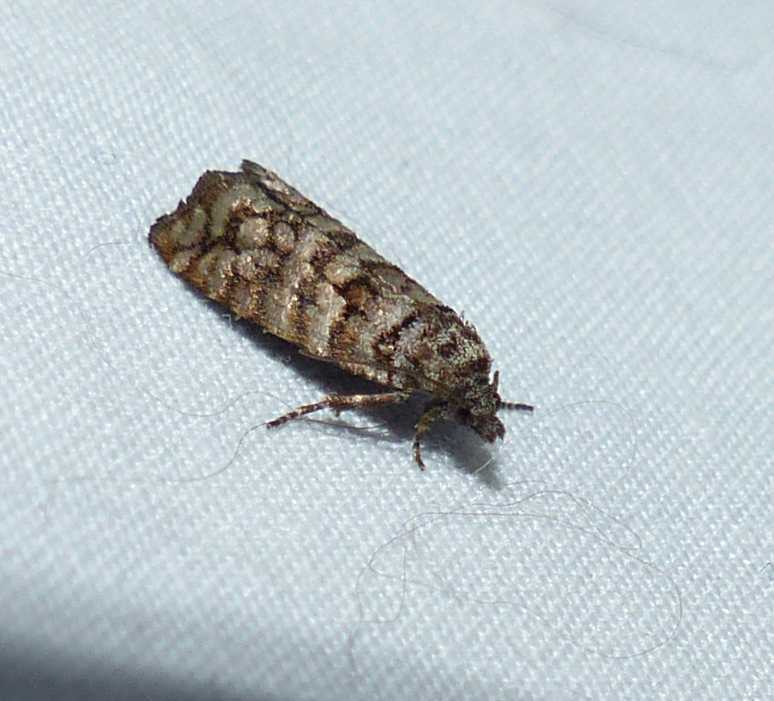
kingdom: Animalia
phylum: Arthropoda
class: Insecta
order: Lepidoptera
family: Tortricidae
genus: Barbara
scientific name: Barbara mappana
